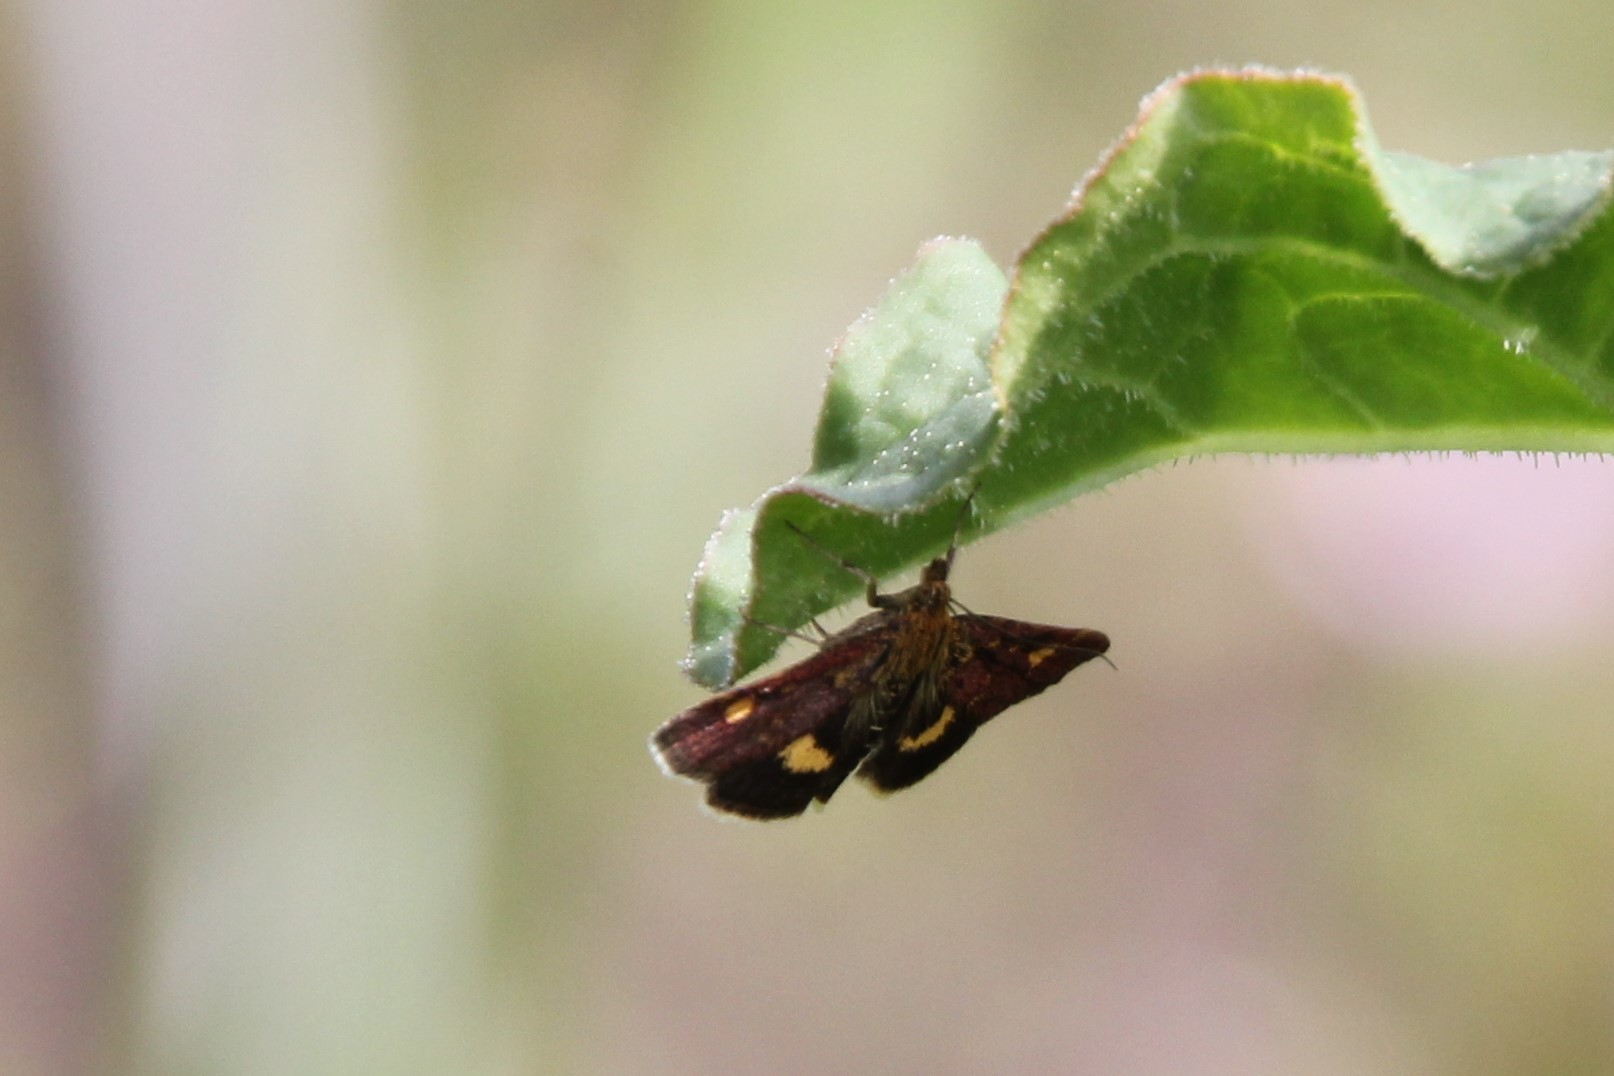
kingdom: Animalia
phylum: Arthropoda
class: Insecta
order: Lepidoptera
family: Crambidae
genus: Pyrausta
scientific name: Pyrausta aurata
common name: Small purple & gold
